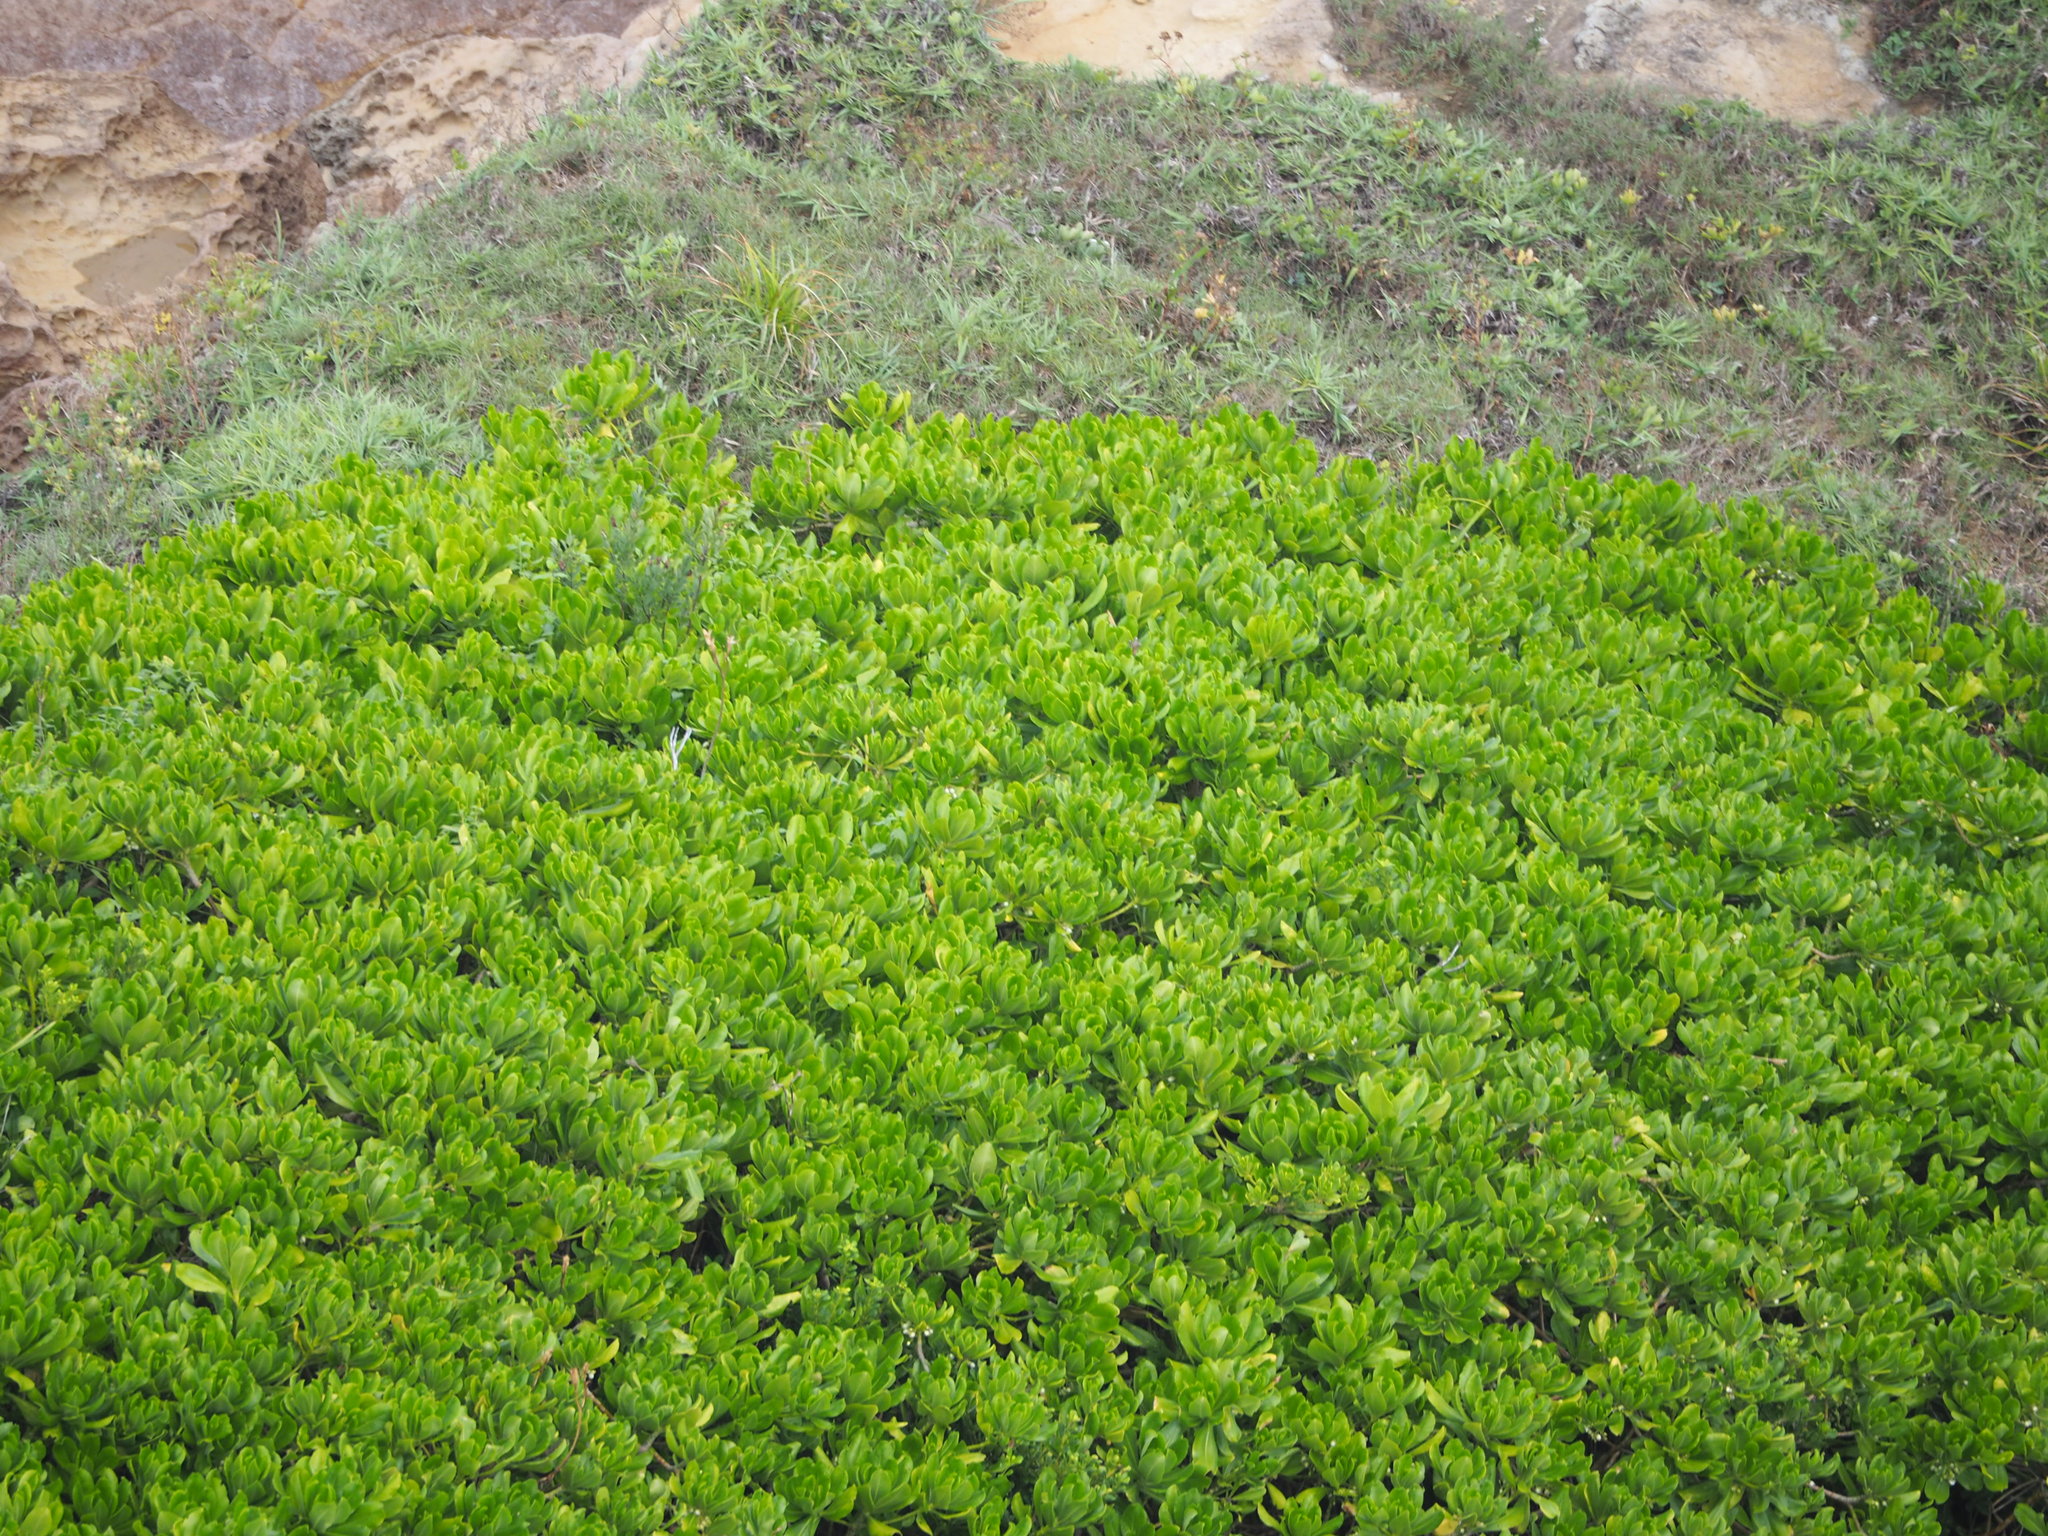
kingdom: Plantae
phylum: Tracheophyta
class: Magnoliopsida
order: Asterales
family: Goodeniaceae
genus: Scaevola
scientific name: Scaevola taccada
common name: Sea lettucetree
